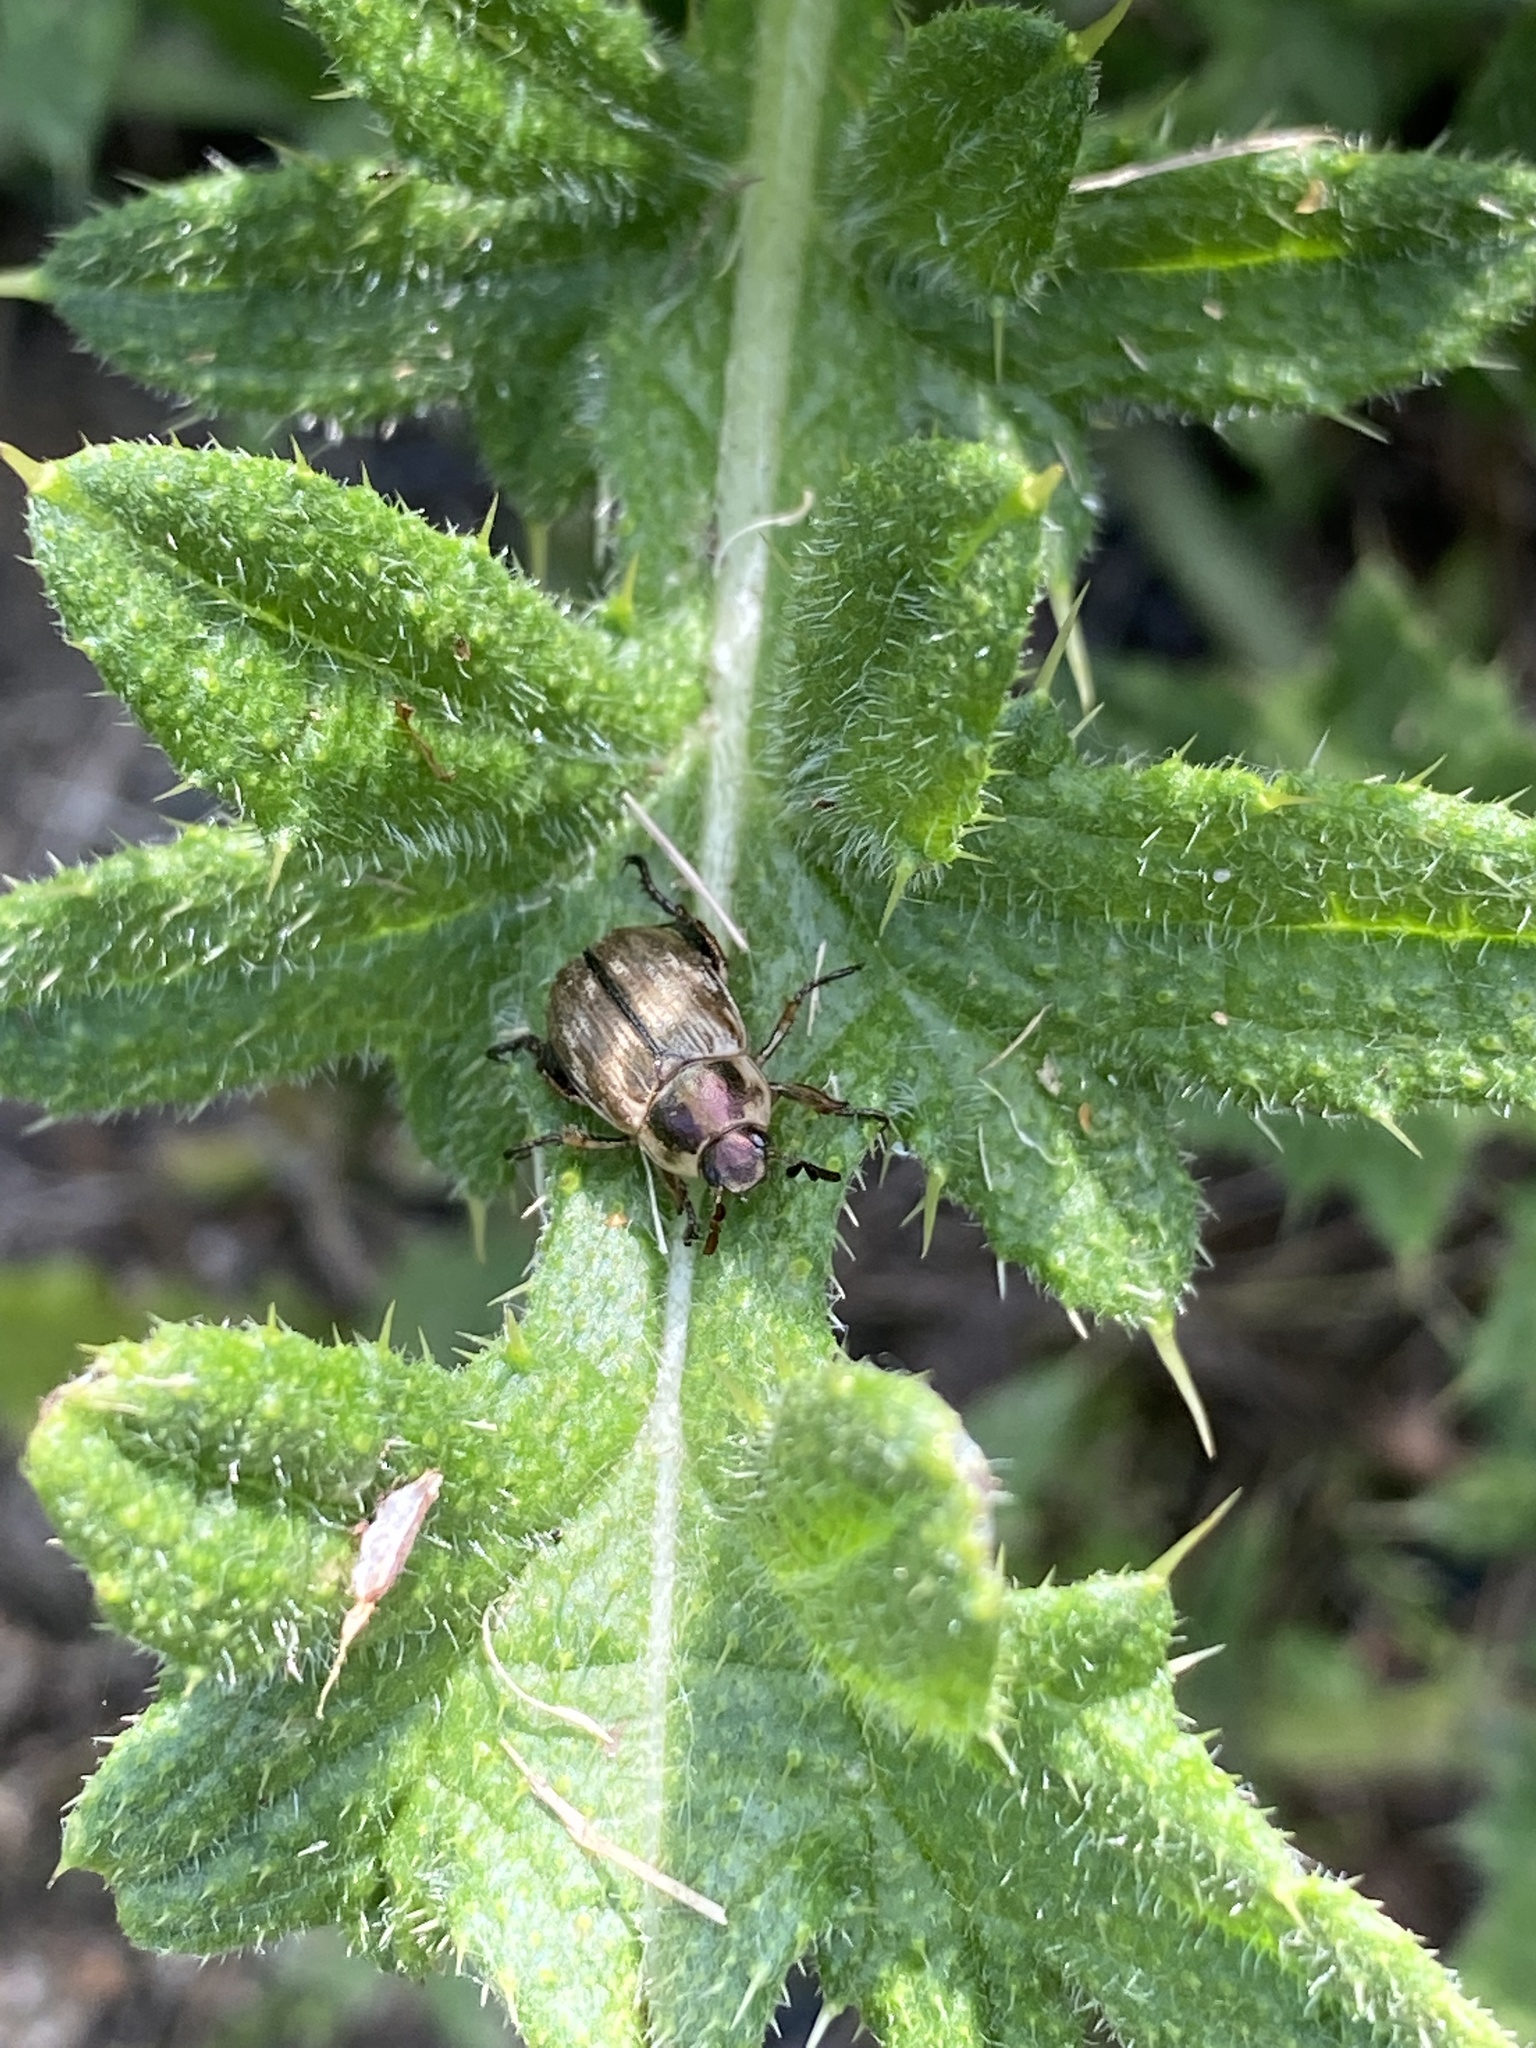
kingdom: Animalia
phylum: Arthropoda
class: Insecta
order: Coleoptera
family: Scarabaeidae
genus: Exomala
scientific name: Exomala orientalis
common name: Oriental beetle
